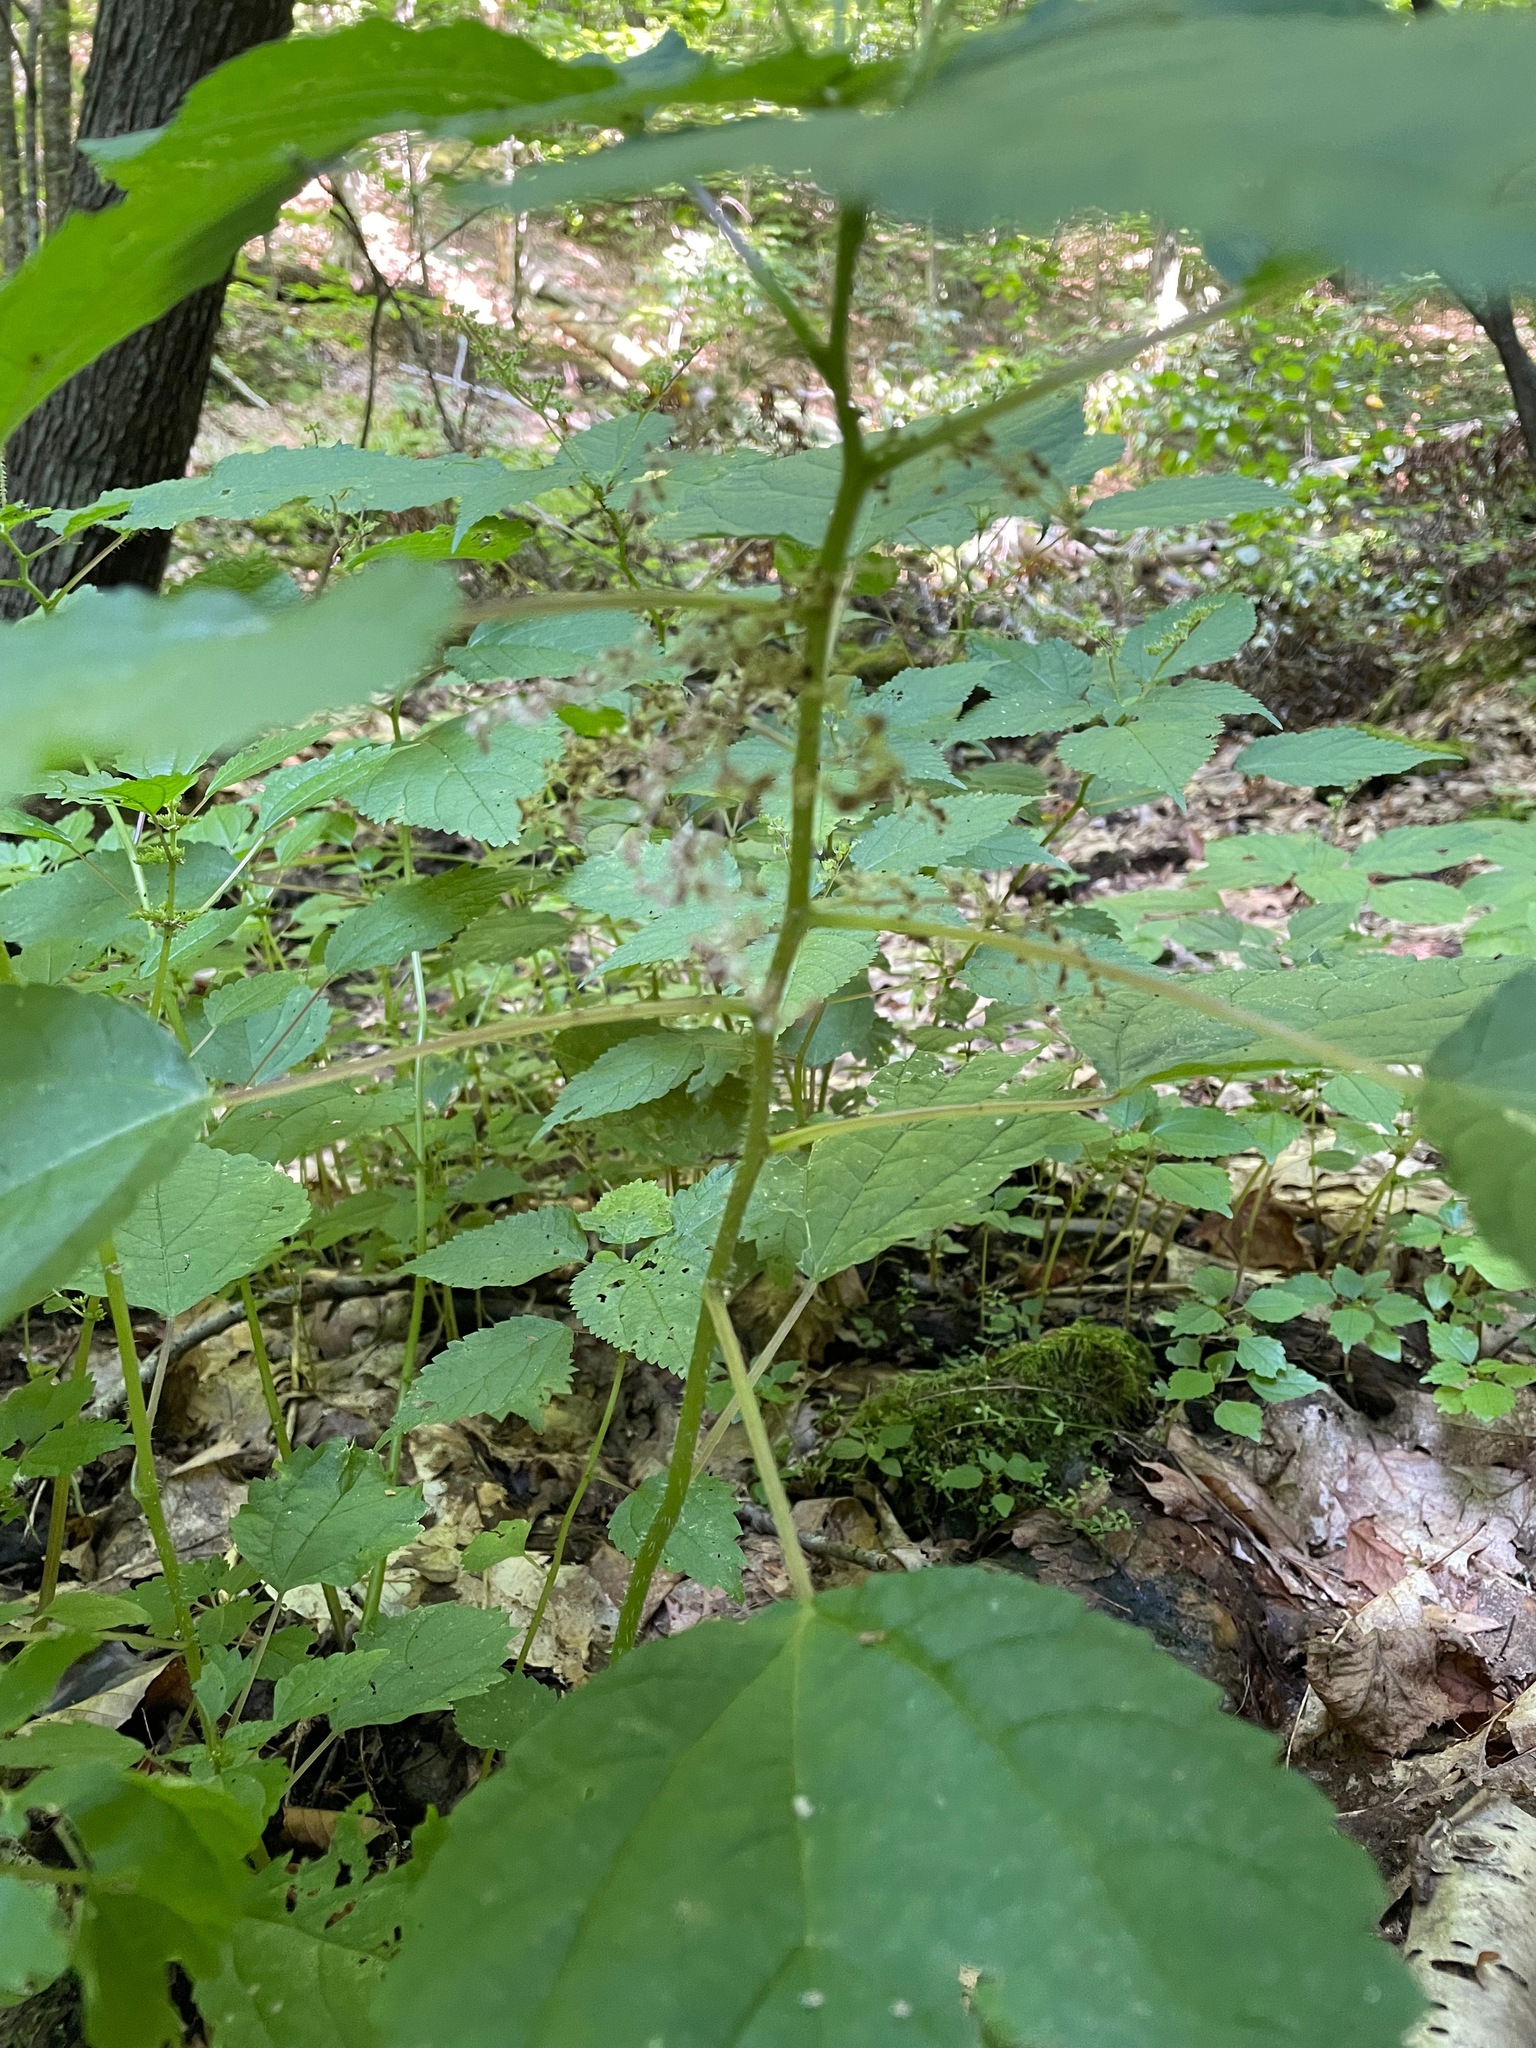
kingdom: Plantae
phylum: Tracheophyta
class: Magnoliopsida
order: Rosales
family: Urticaceae
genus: Laportea
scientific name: Laportea canadensis
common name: Canada nettle
